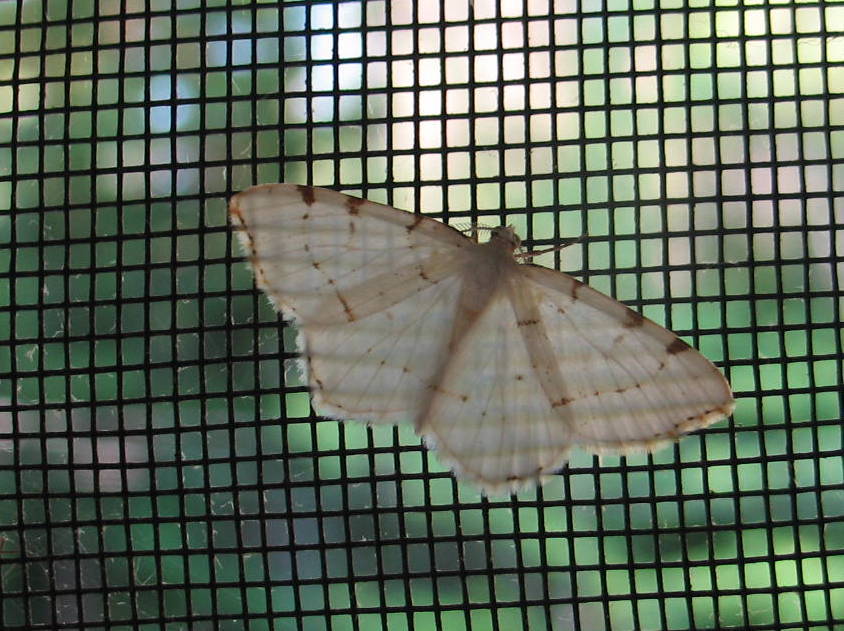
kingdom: Animalia
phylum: Arthropoda
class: Insecta
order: Lepidoptera
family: Geometridae
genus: Macaria
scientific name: Macaria pustularia
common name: Lesser maple spanworm moth
